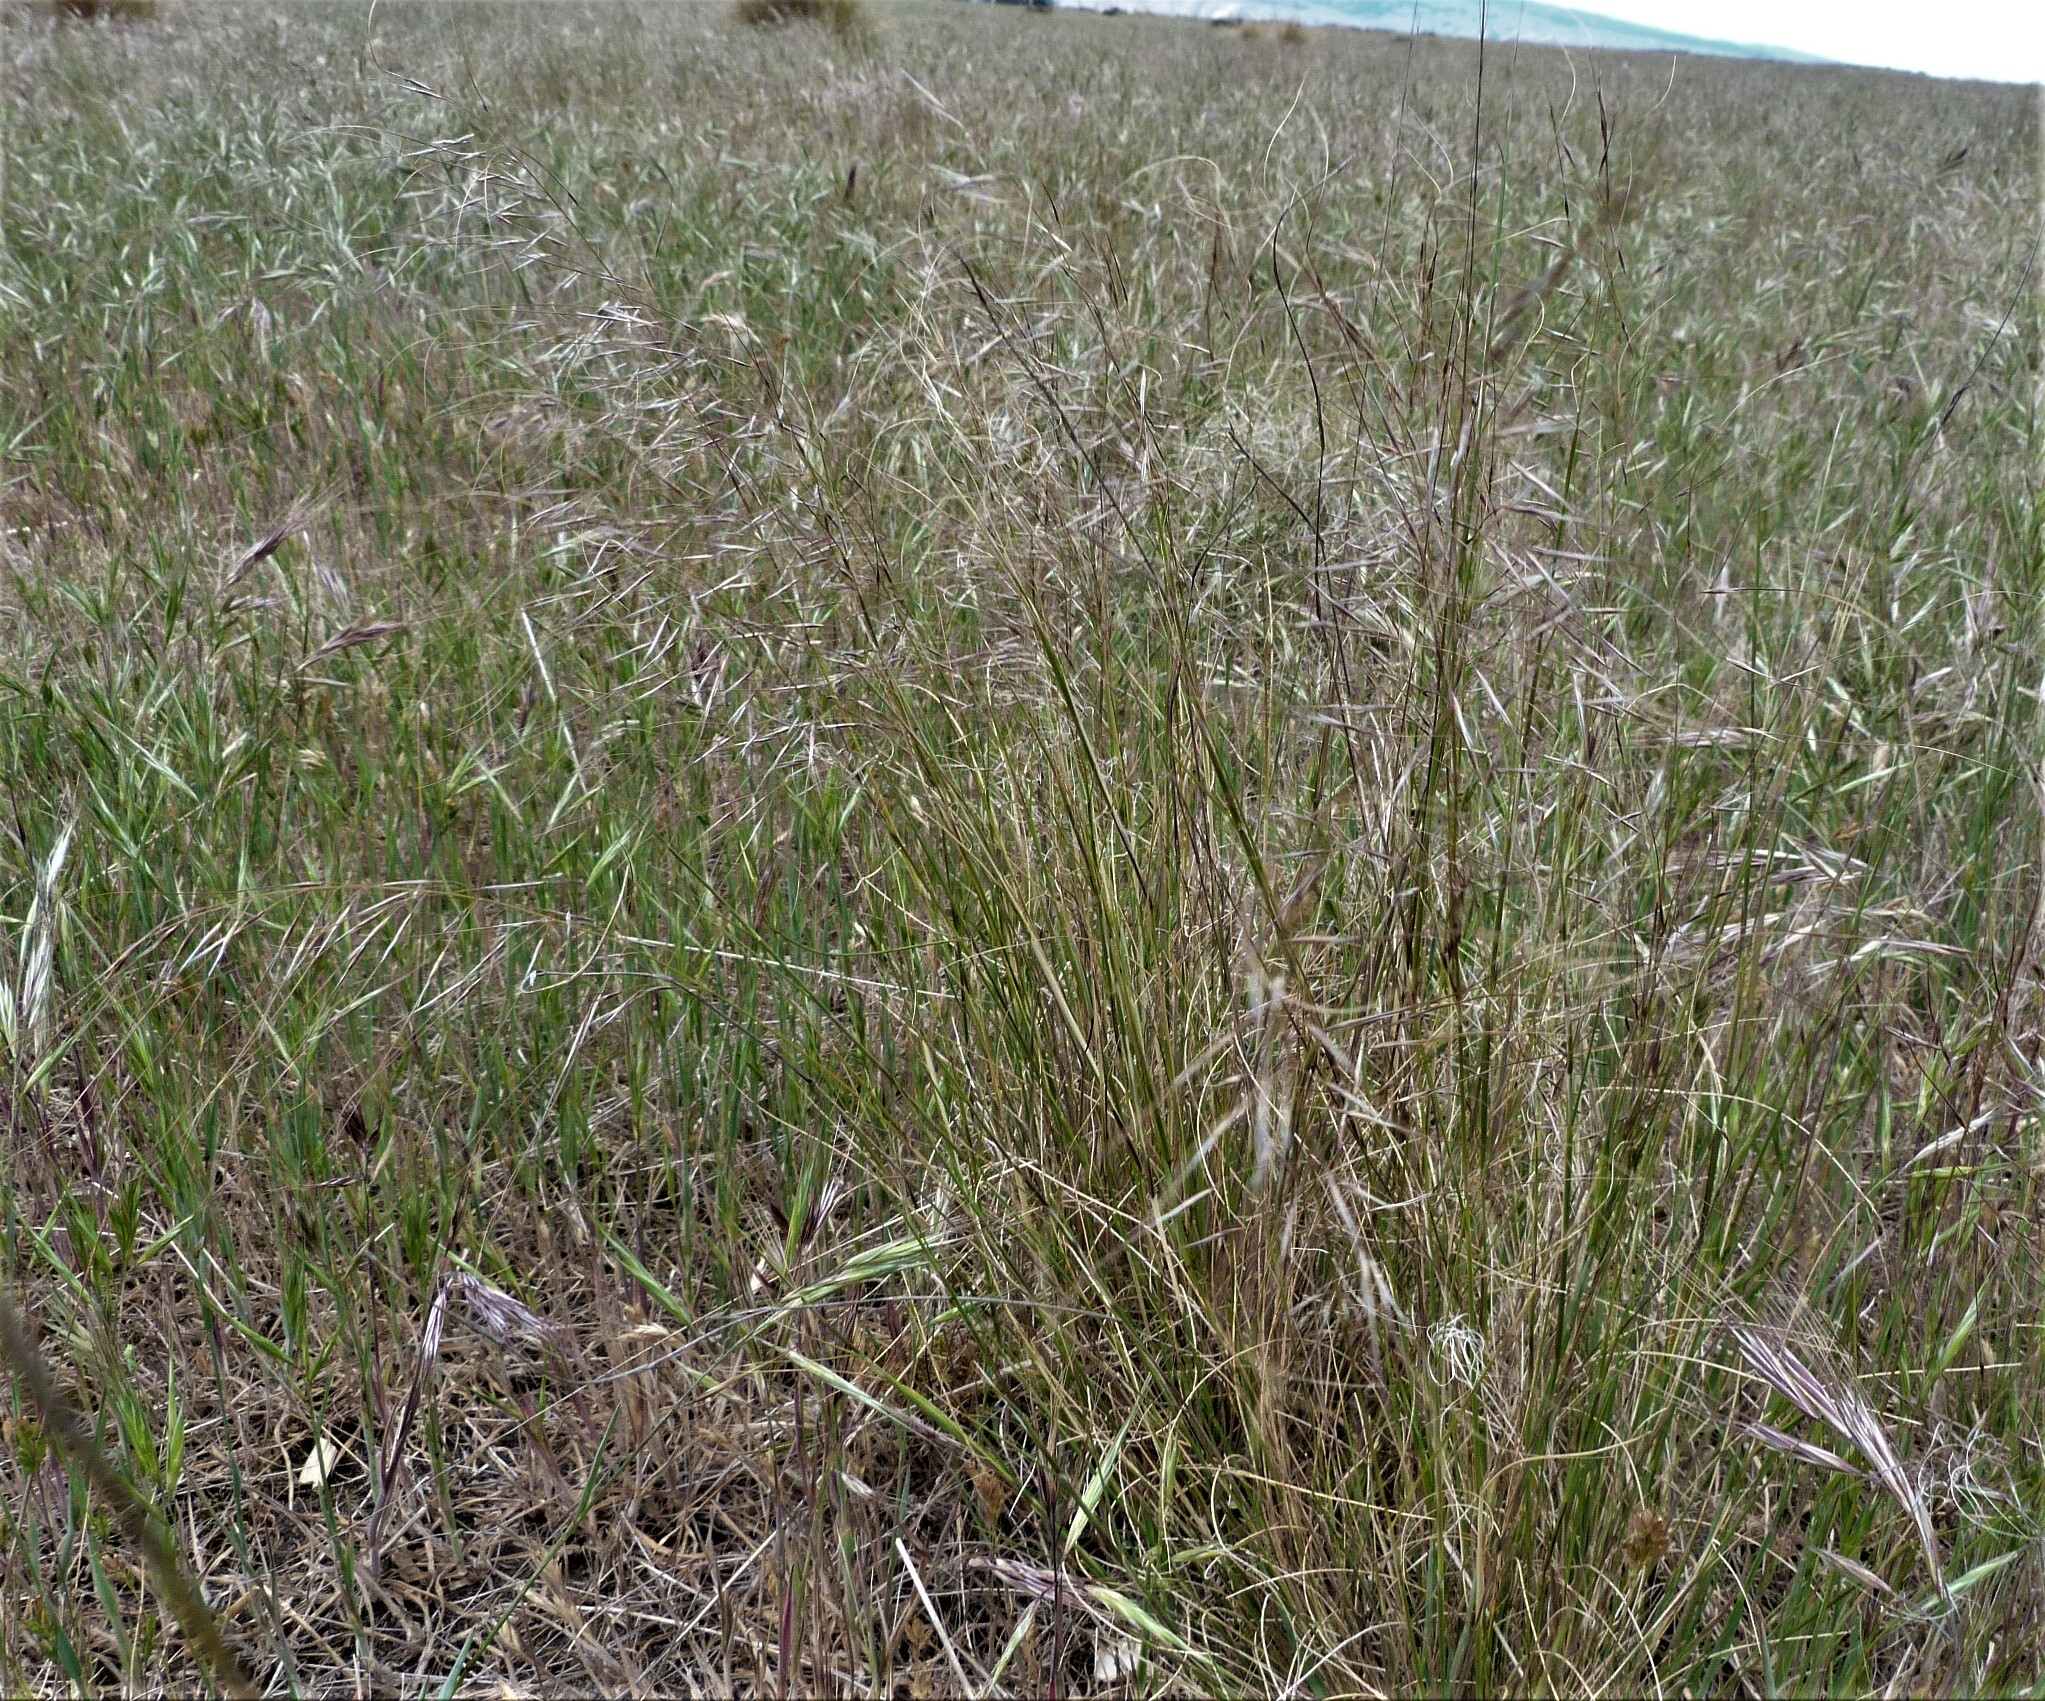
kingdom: Plantae
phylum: Tracheophyta
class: Liliopsida
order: Poales
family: Poaceae
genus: Austrostipa
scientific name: Austrostipa nodosa
